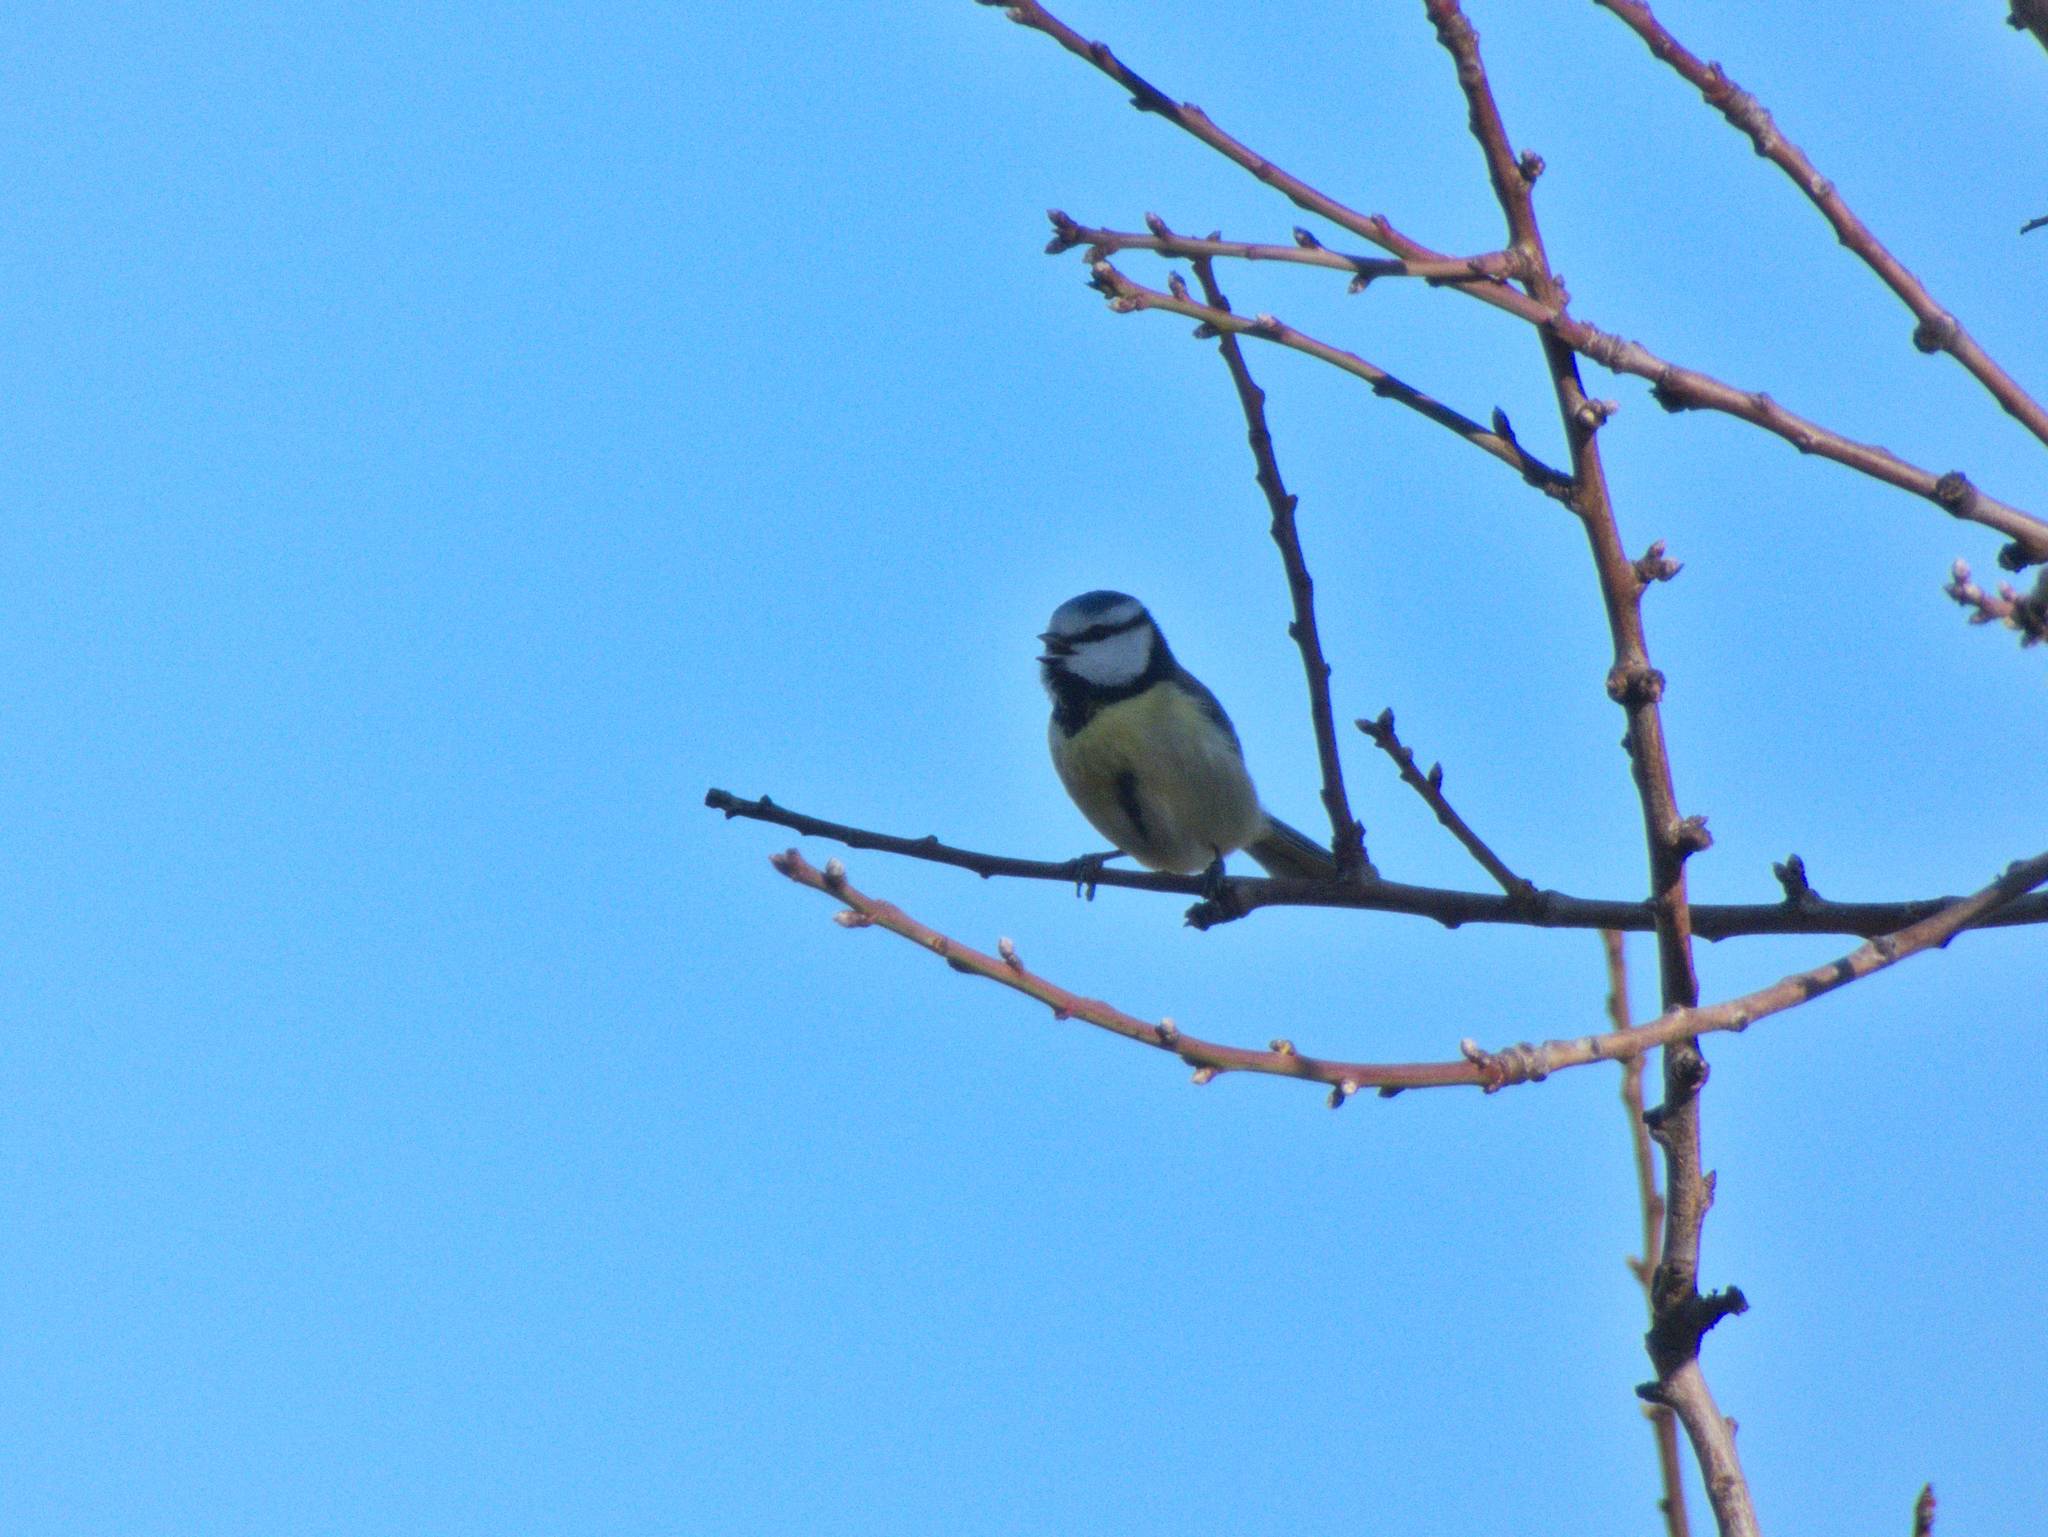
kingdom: Animalia
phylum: Chordata
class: Aves
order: Passeriformes
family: Paridae
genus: Cyanistes
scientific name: Cyanistes caeruleus
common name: Eurasian blue tit
